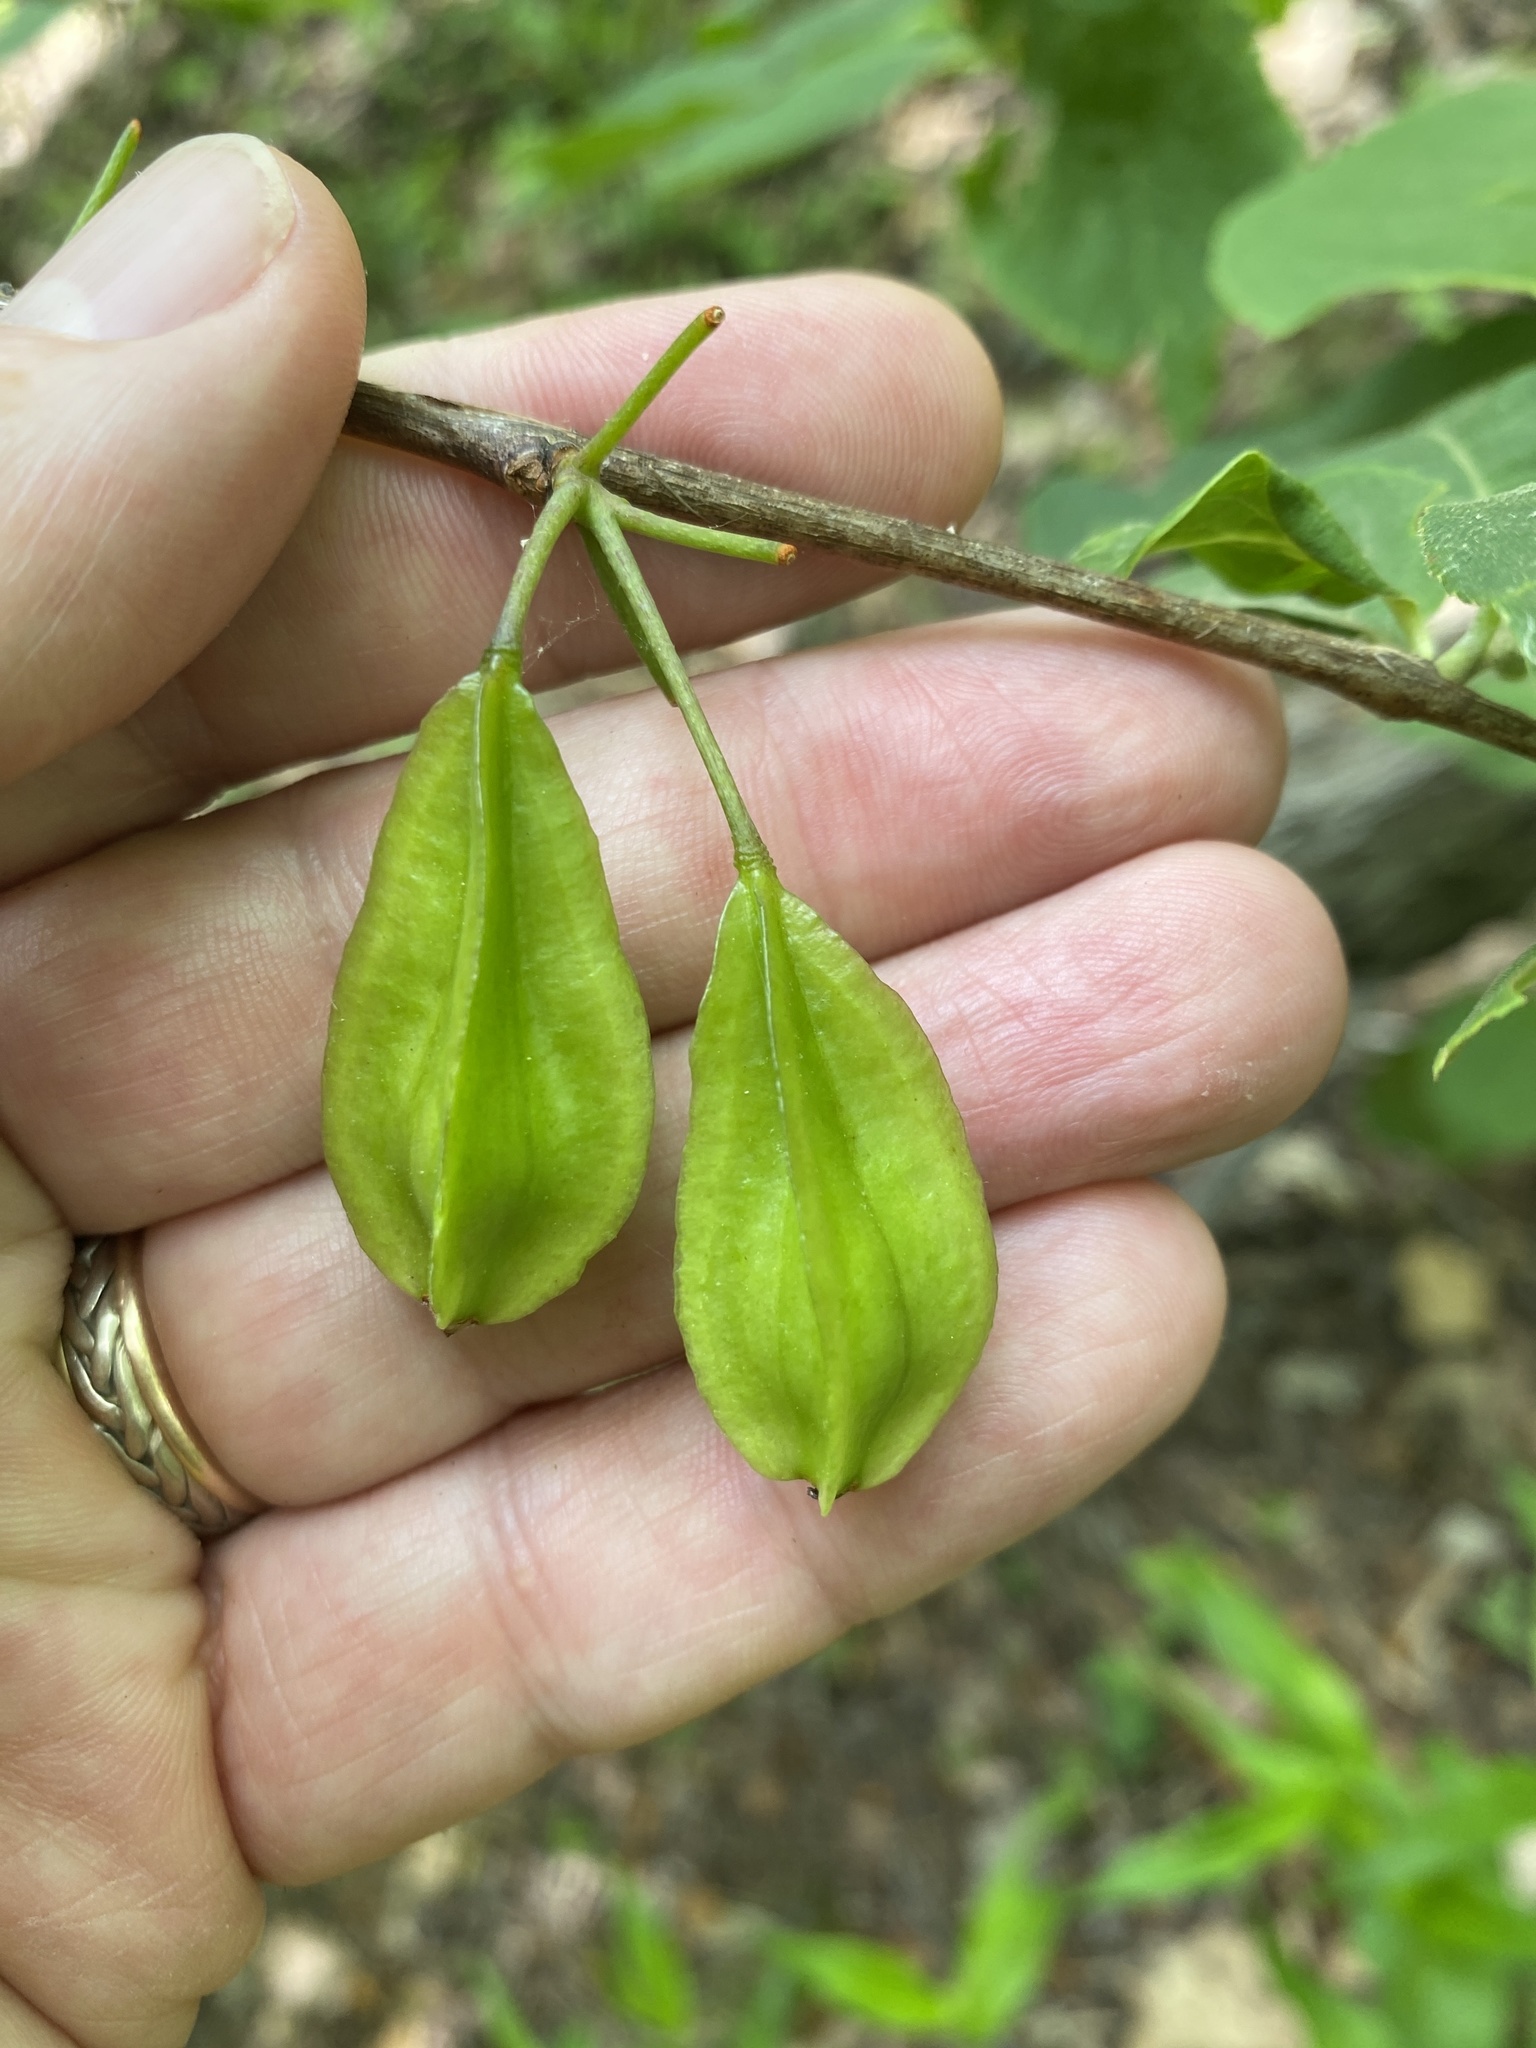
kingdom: Plantae
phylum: Tracheophyta
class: Magnoliopsida
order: Ericales
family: Styracaceae
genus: Halesia
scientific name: Halesia carolina
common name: Carolina silverbell
